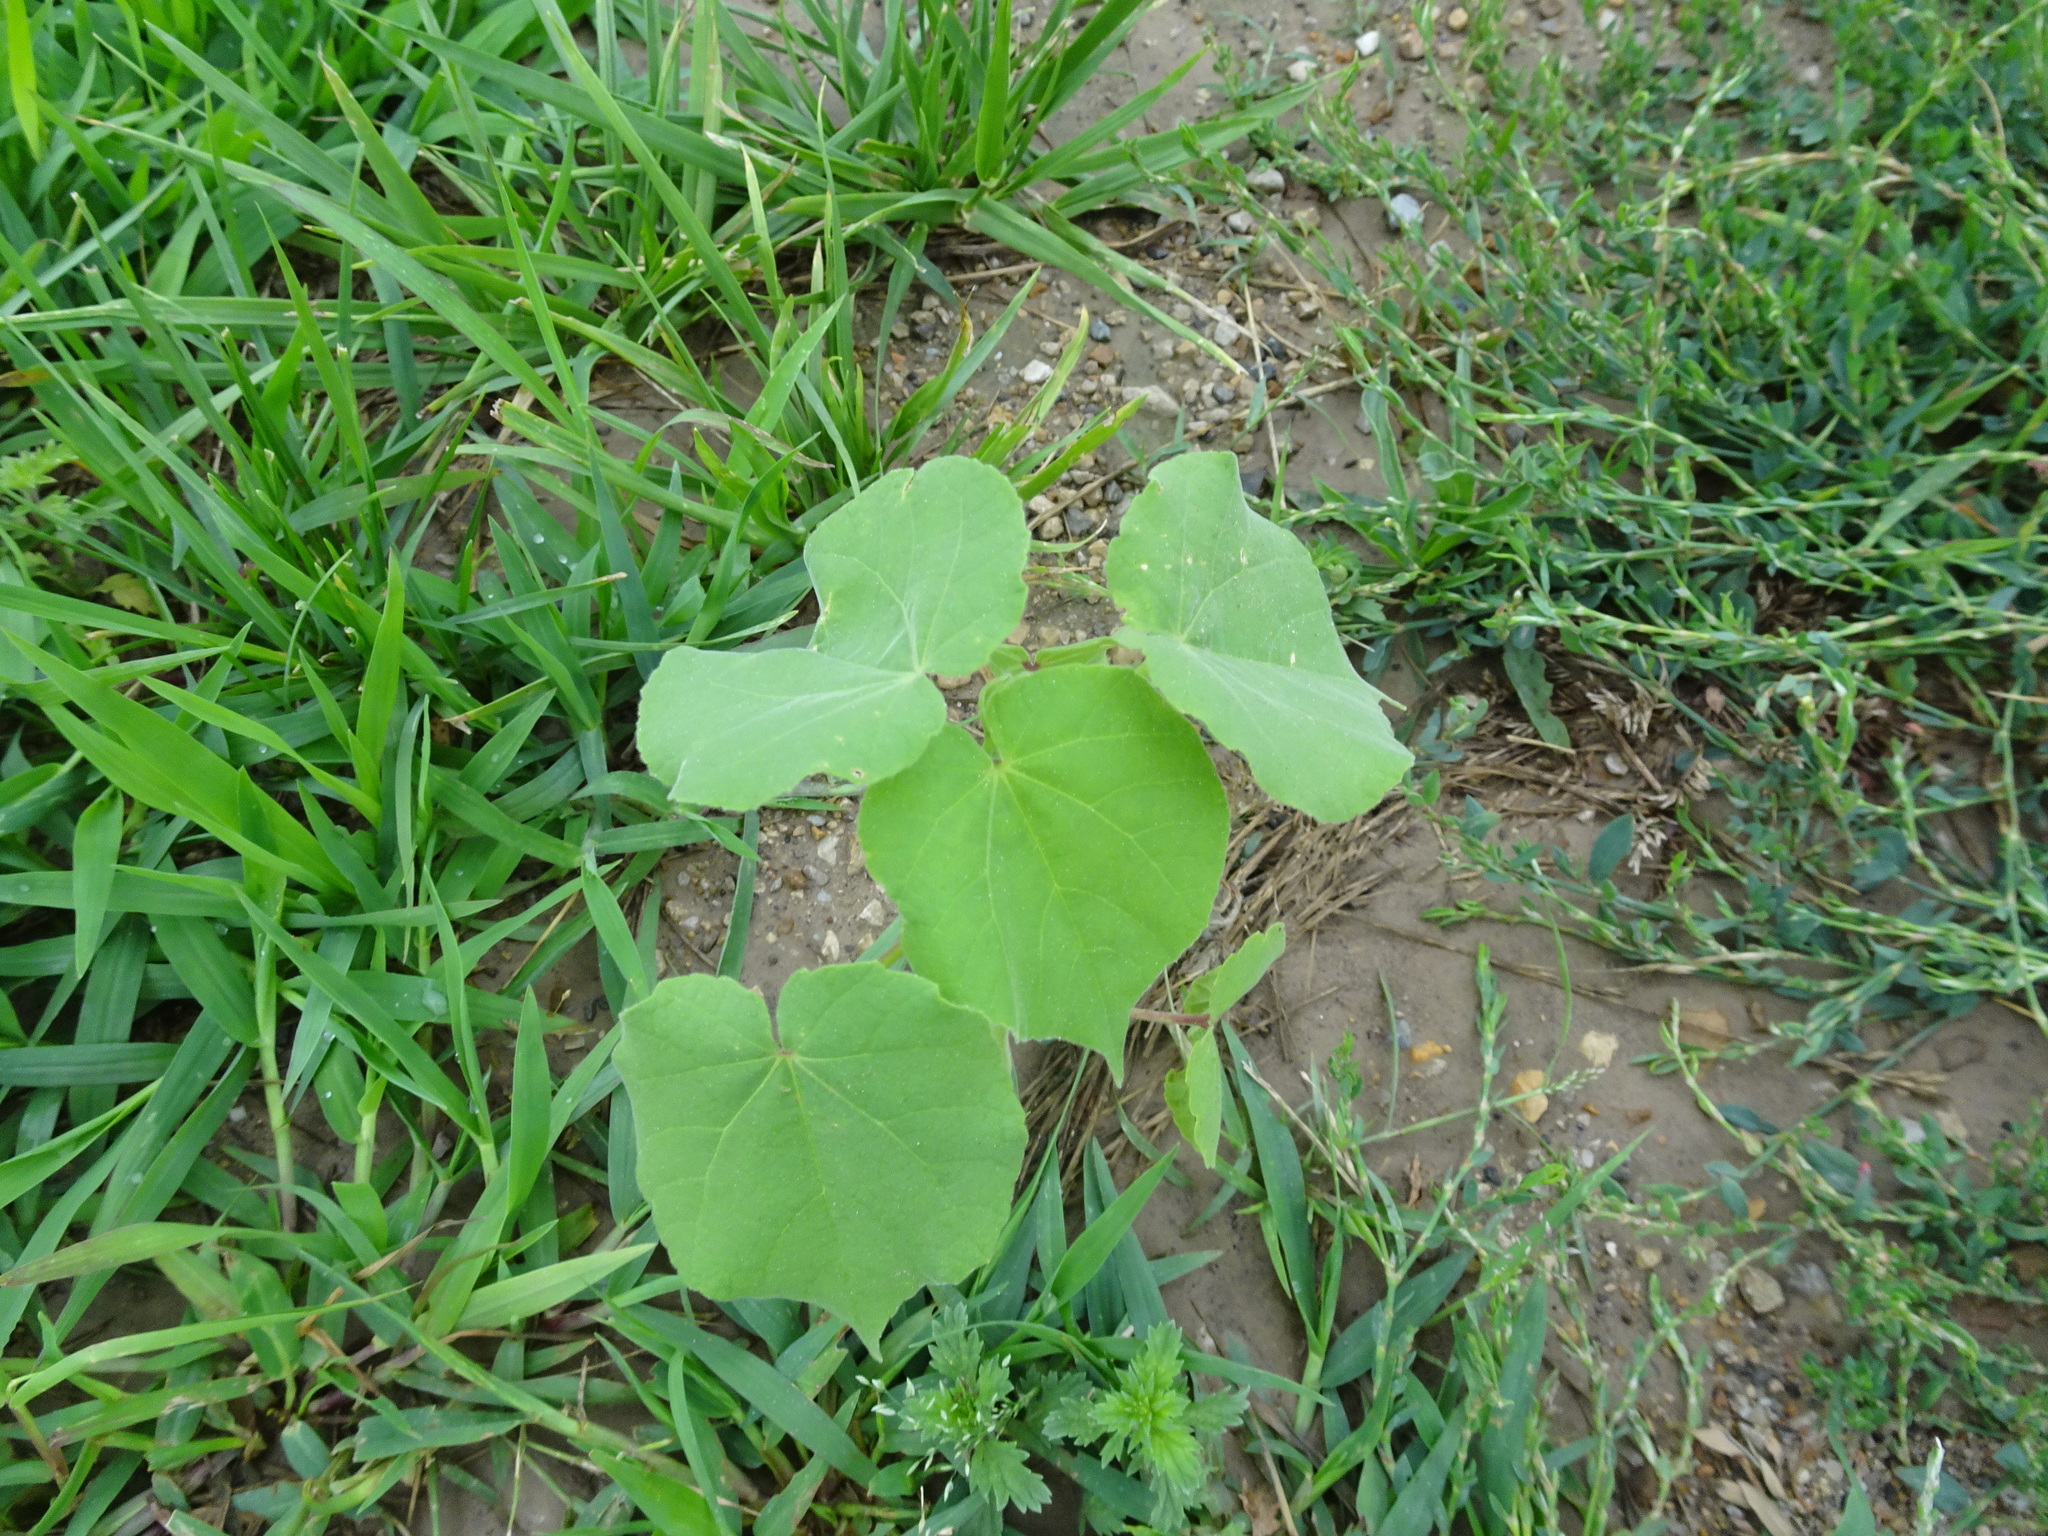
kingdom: Plantae
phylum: Tracheophyta
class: Magnoliopsida
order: Malvales
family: Malvaceae
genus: Abutilon
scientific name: Abutilon theophrasti
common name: Velvetleaf
